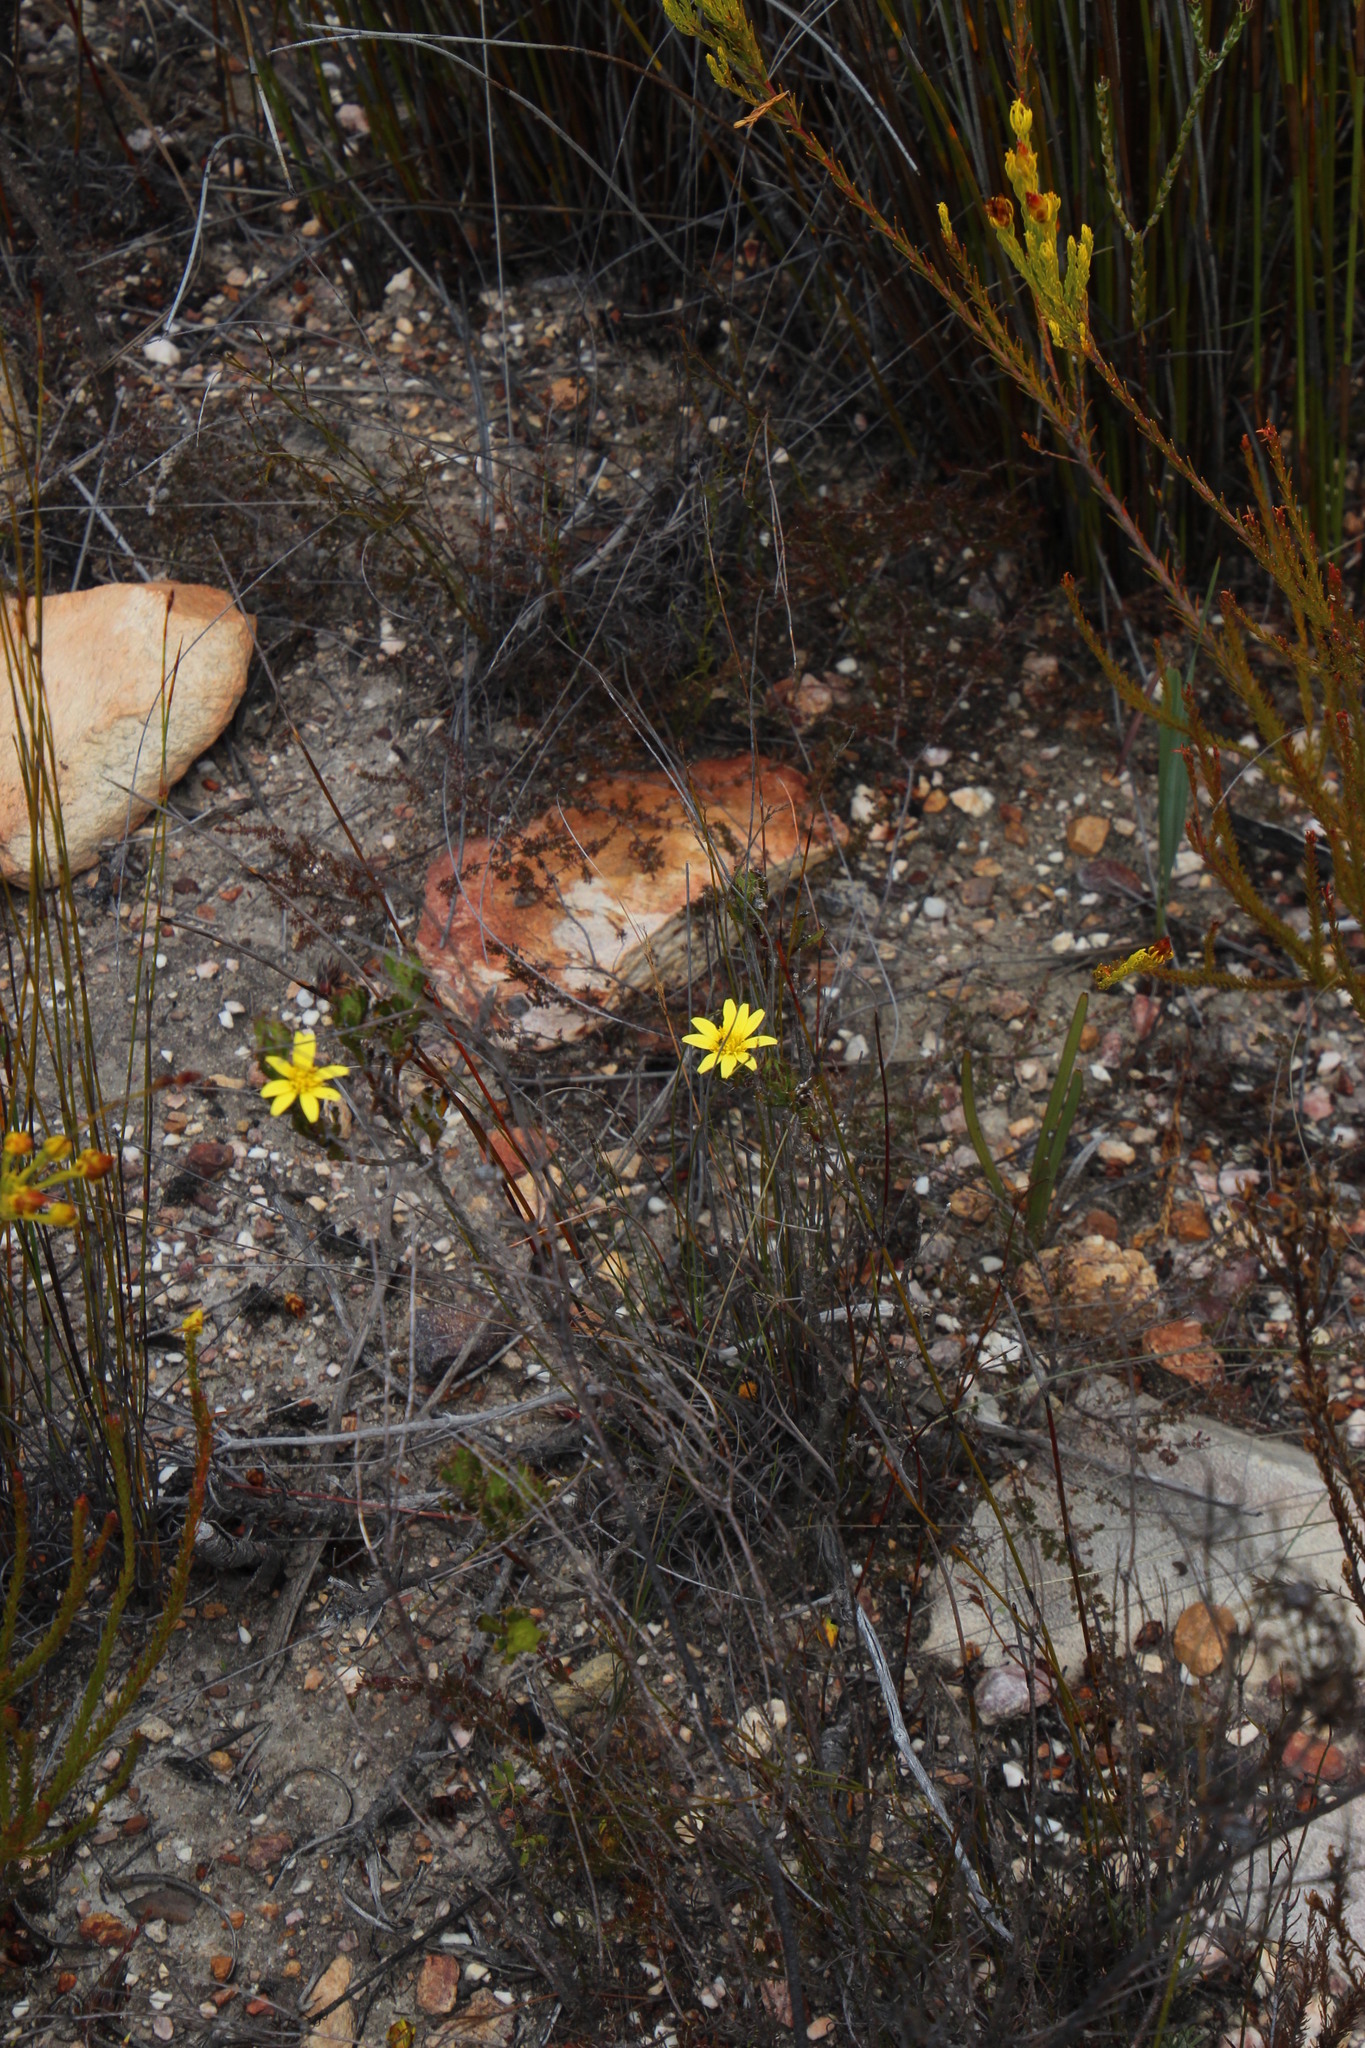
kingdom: Plantae
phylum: Tracheophyta
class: Magnoliopsida
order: Asterales
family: Asteraceae
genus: Cullumia
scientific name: Cullumia aculeata
